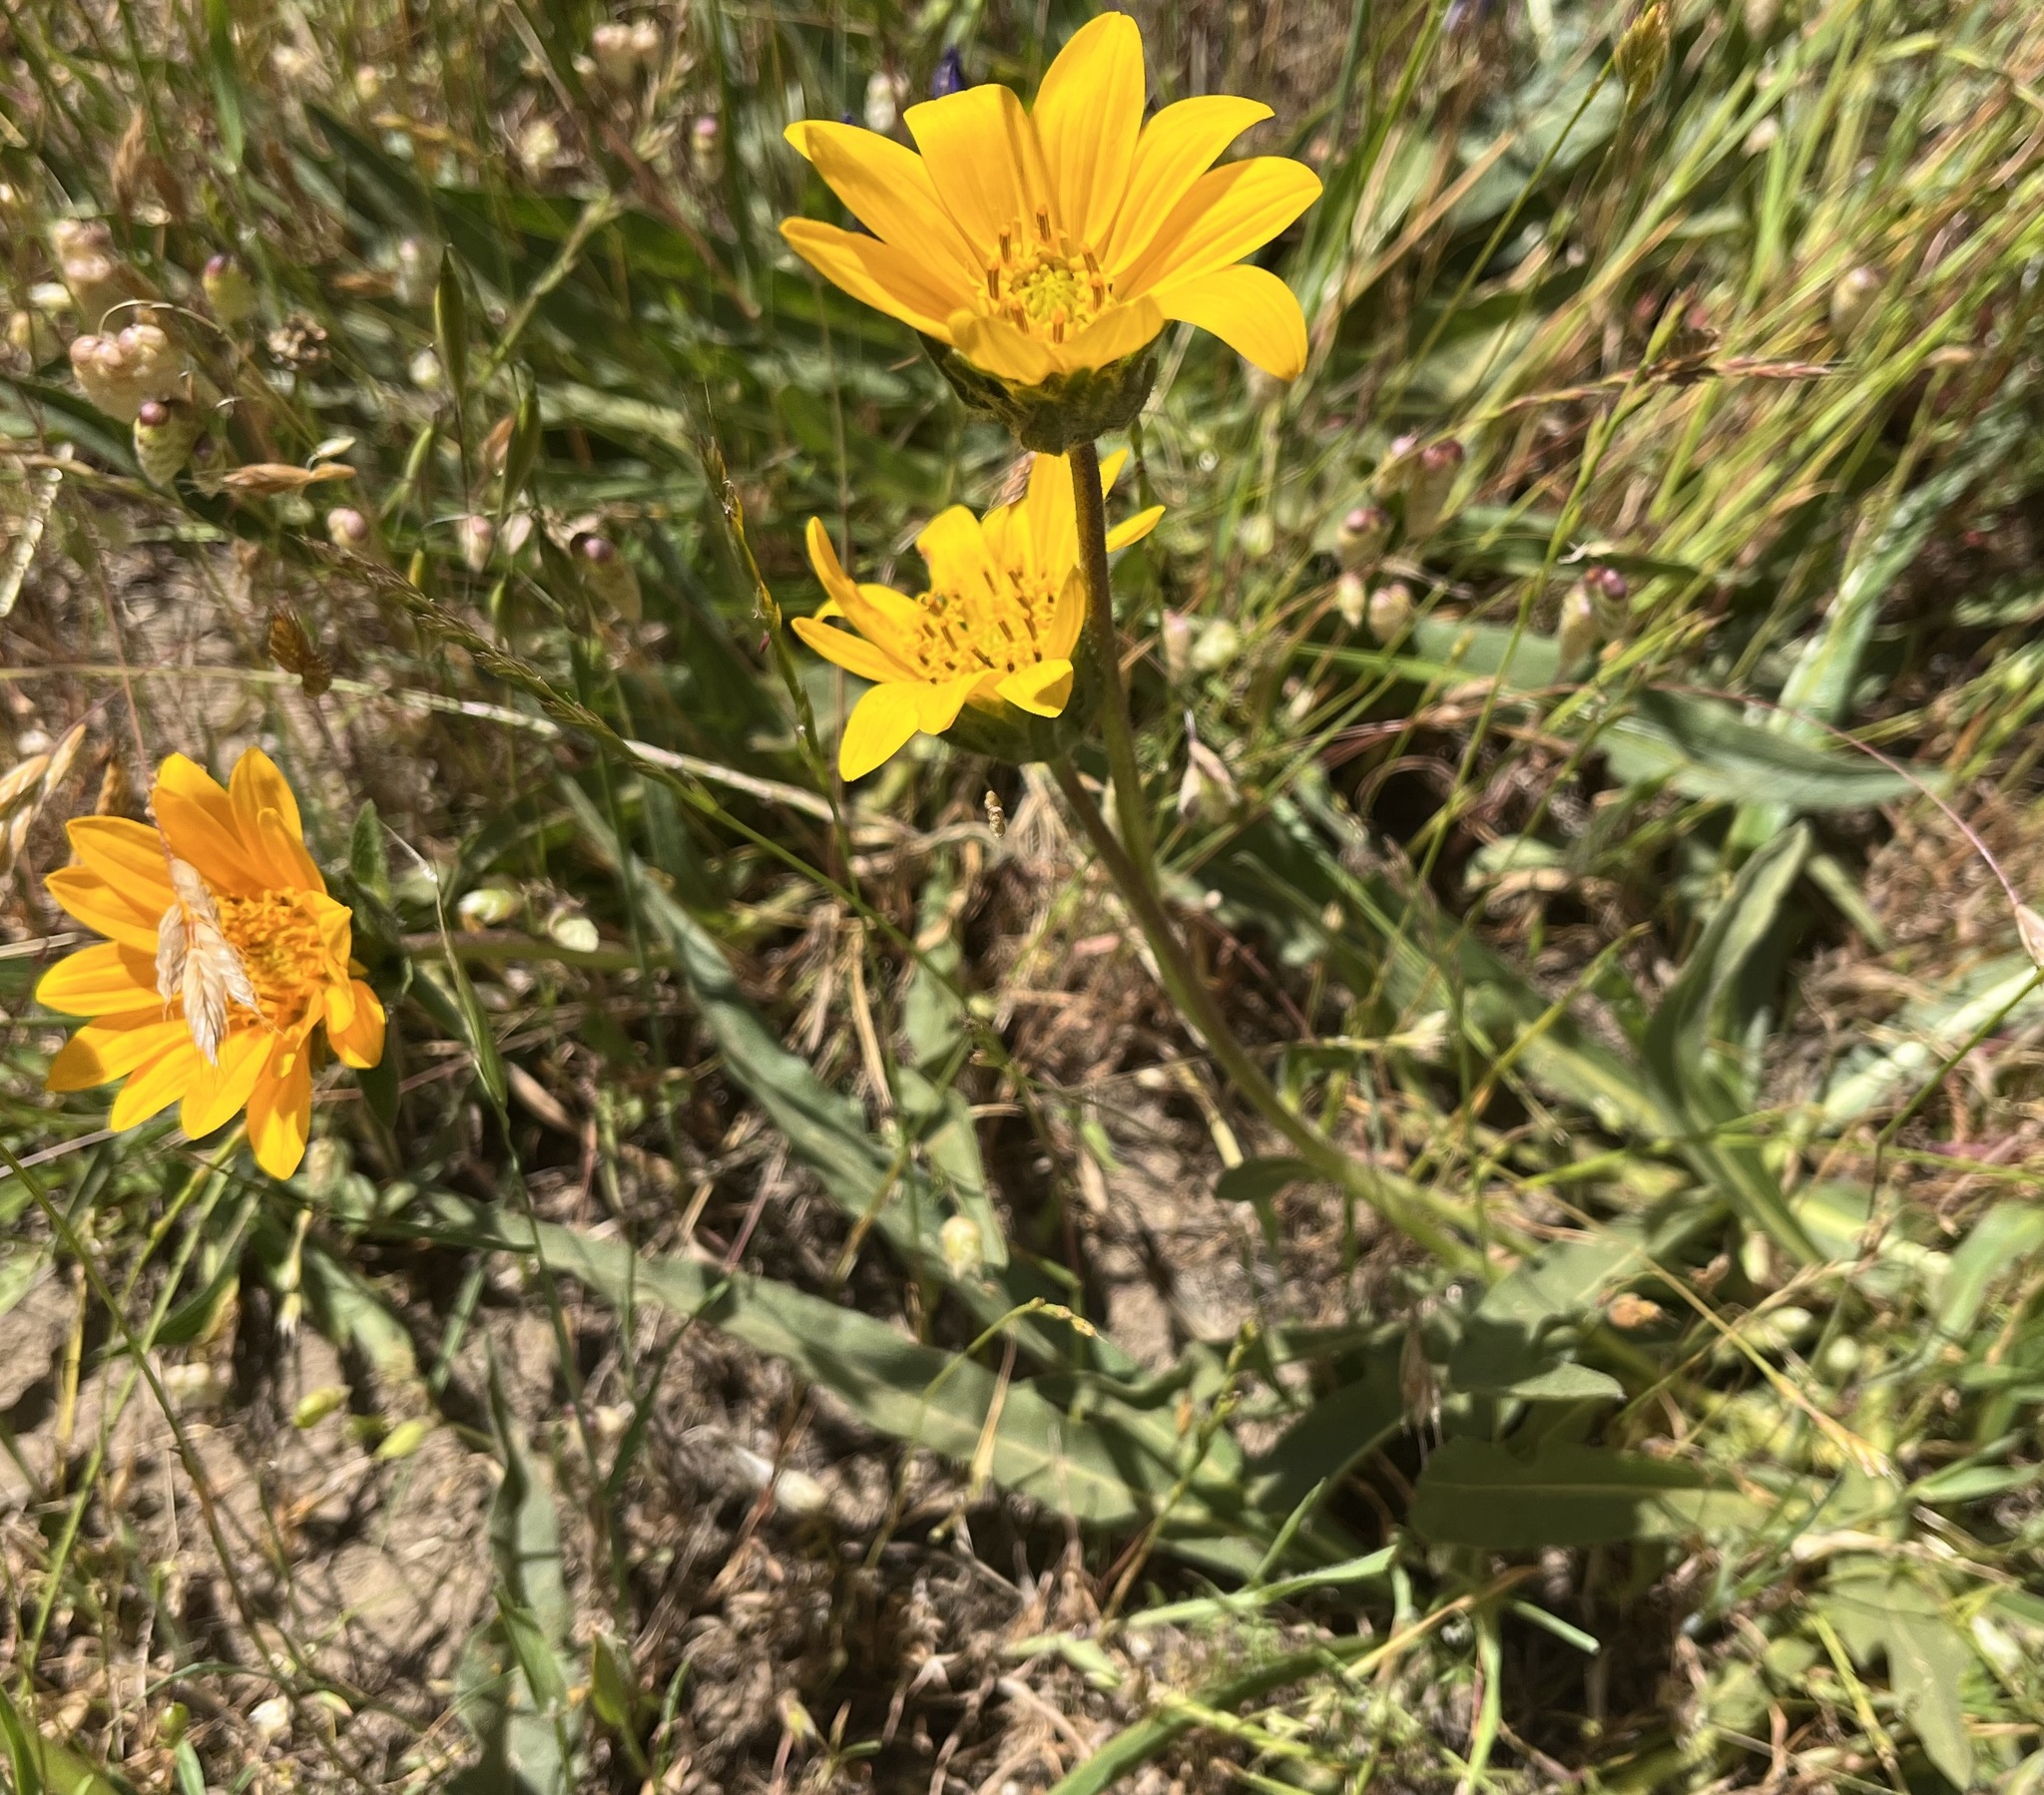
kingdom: Plantae
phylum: Tracheophyta
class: Magnoliopsida
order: Asterales
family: Asteraceae
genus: Wyethia
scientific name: Wyethia angustifolia
